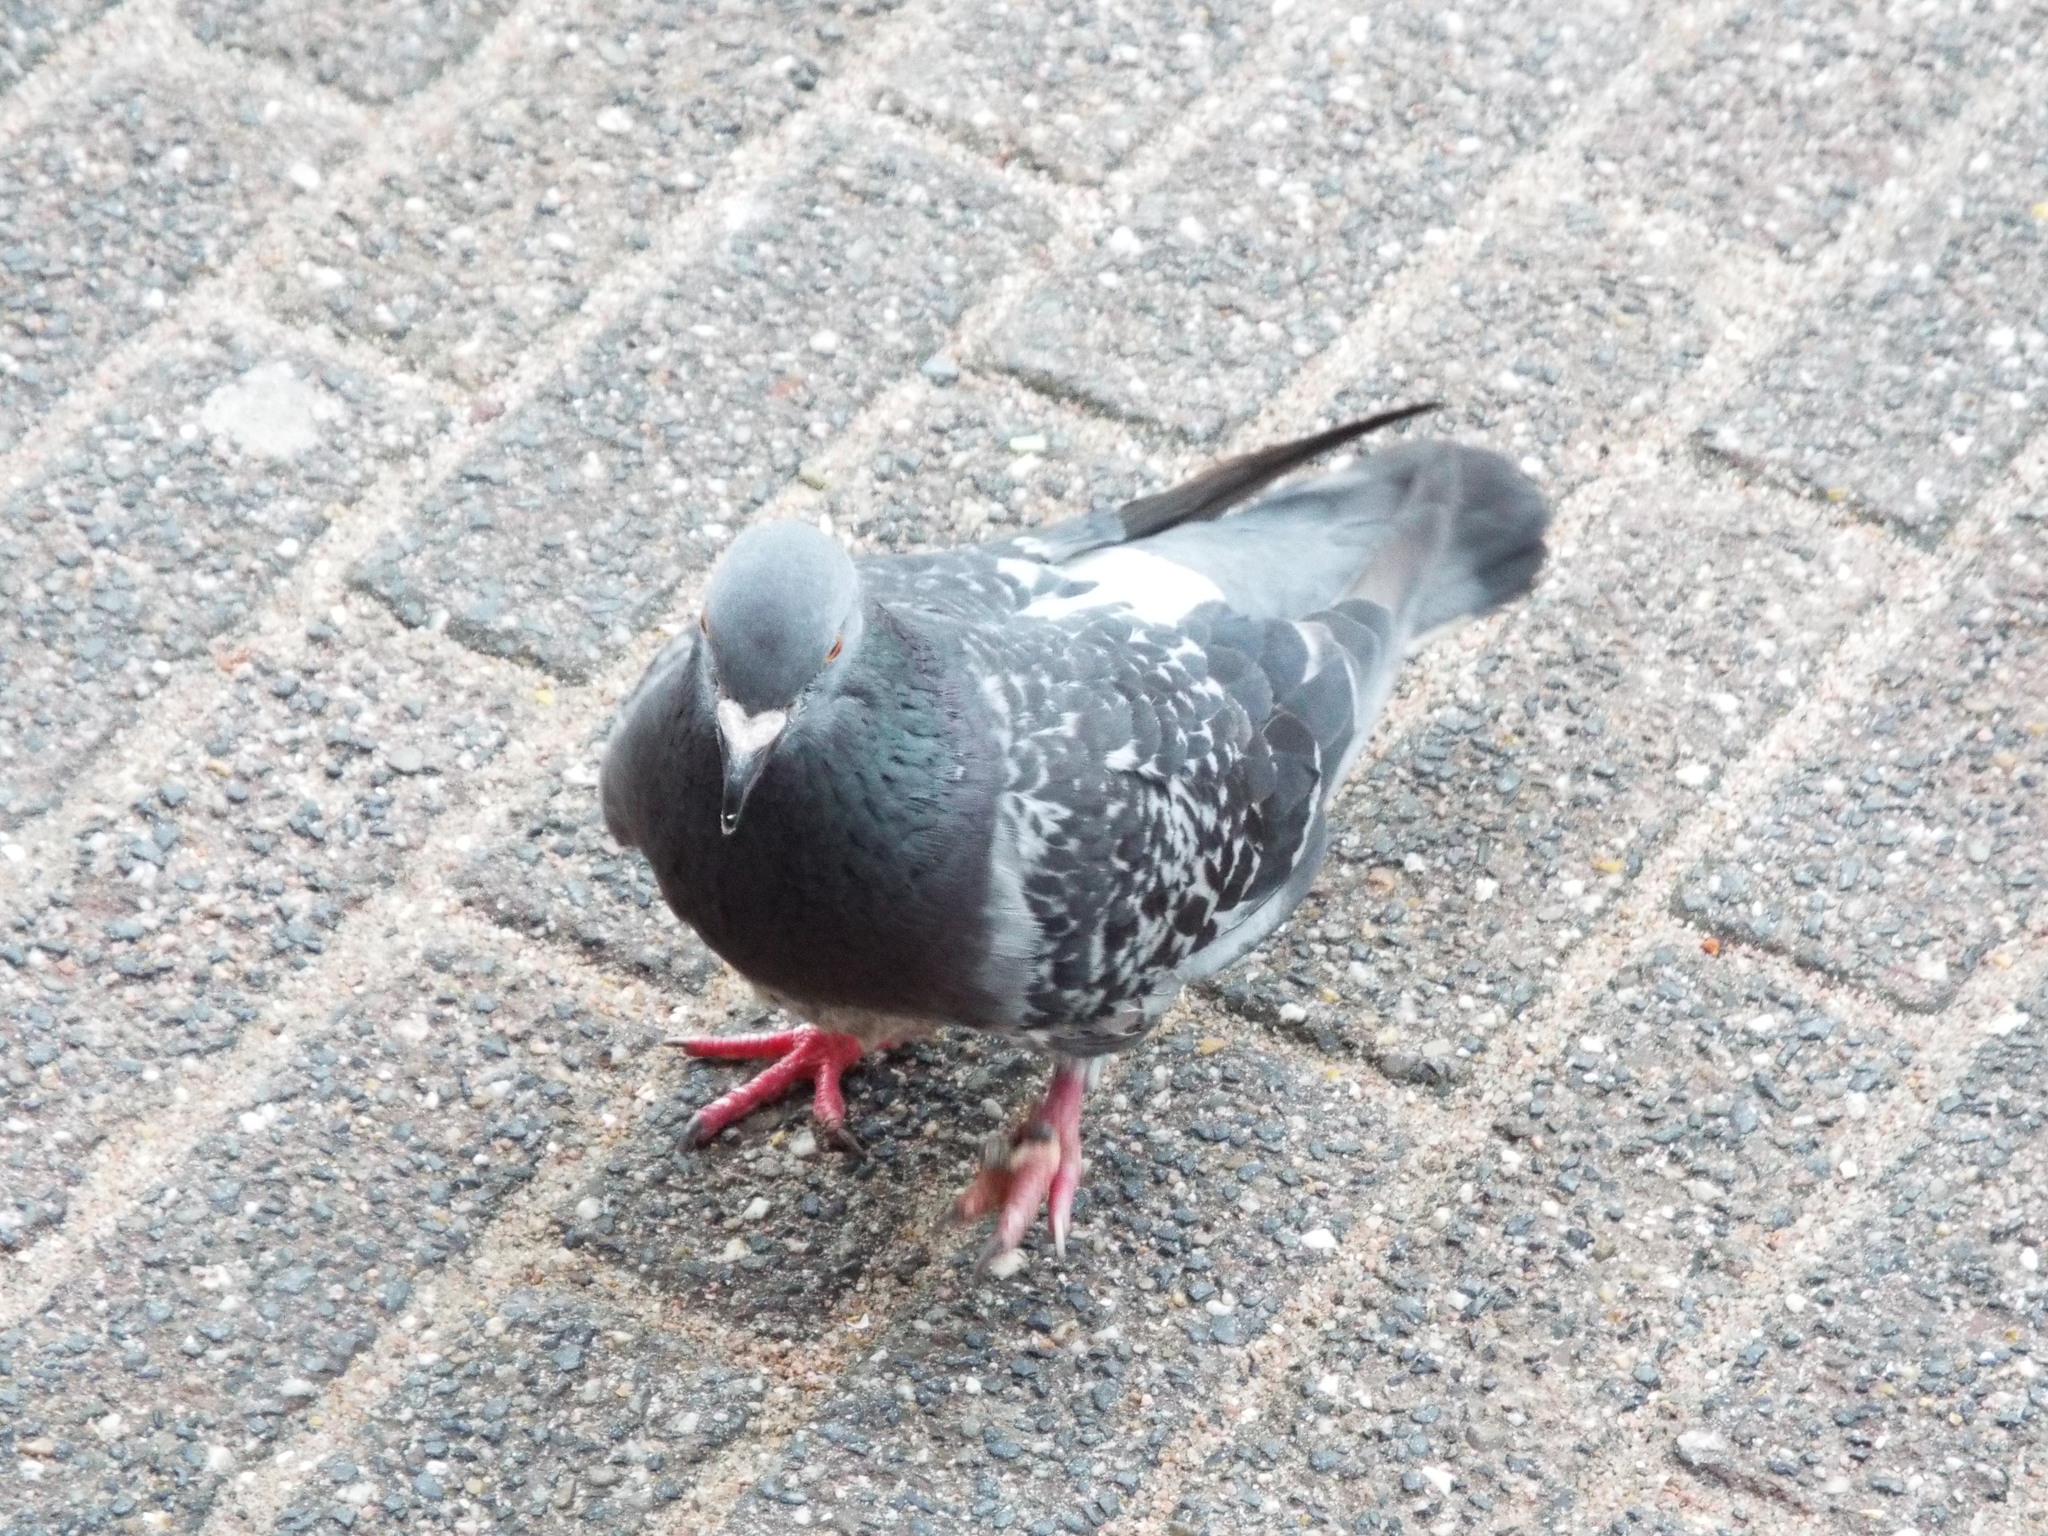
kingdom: Animalia
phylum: Chordata
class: Aves
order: Columbiformes
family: Columbidae
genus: Columba
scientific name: Columba livia
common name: Rock pigeon
